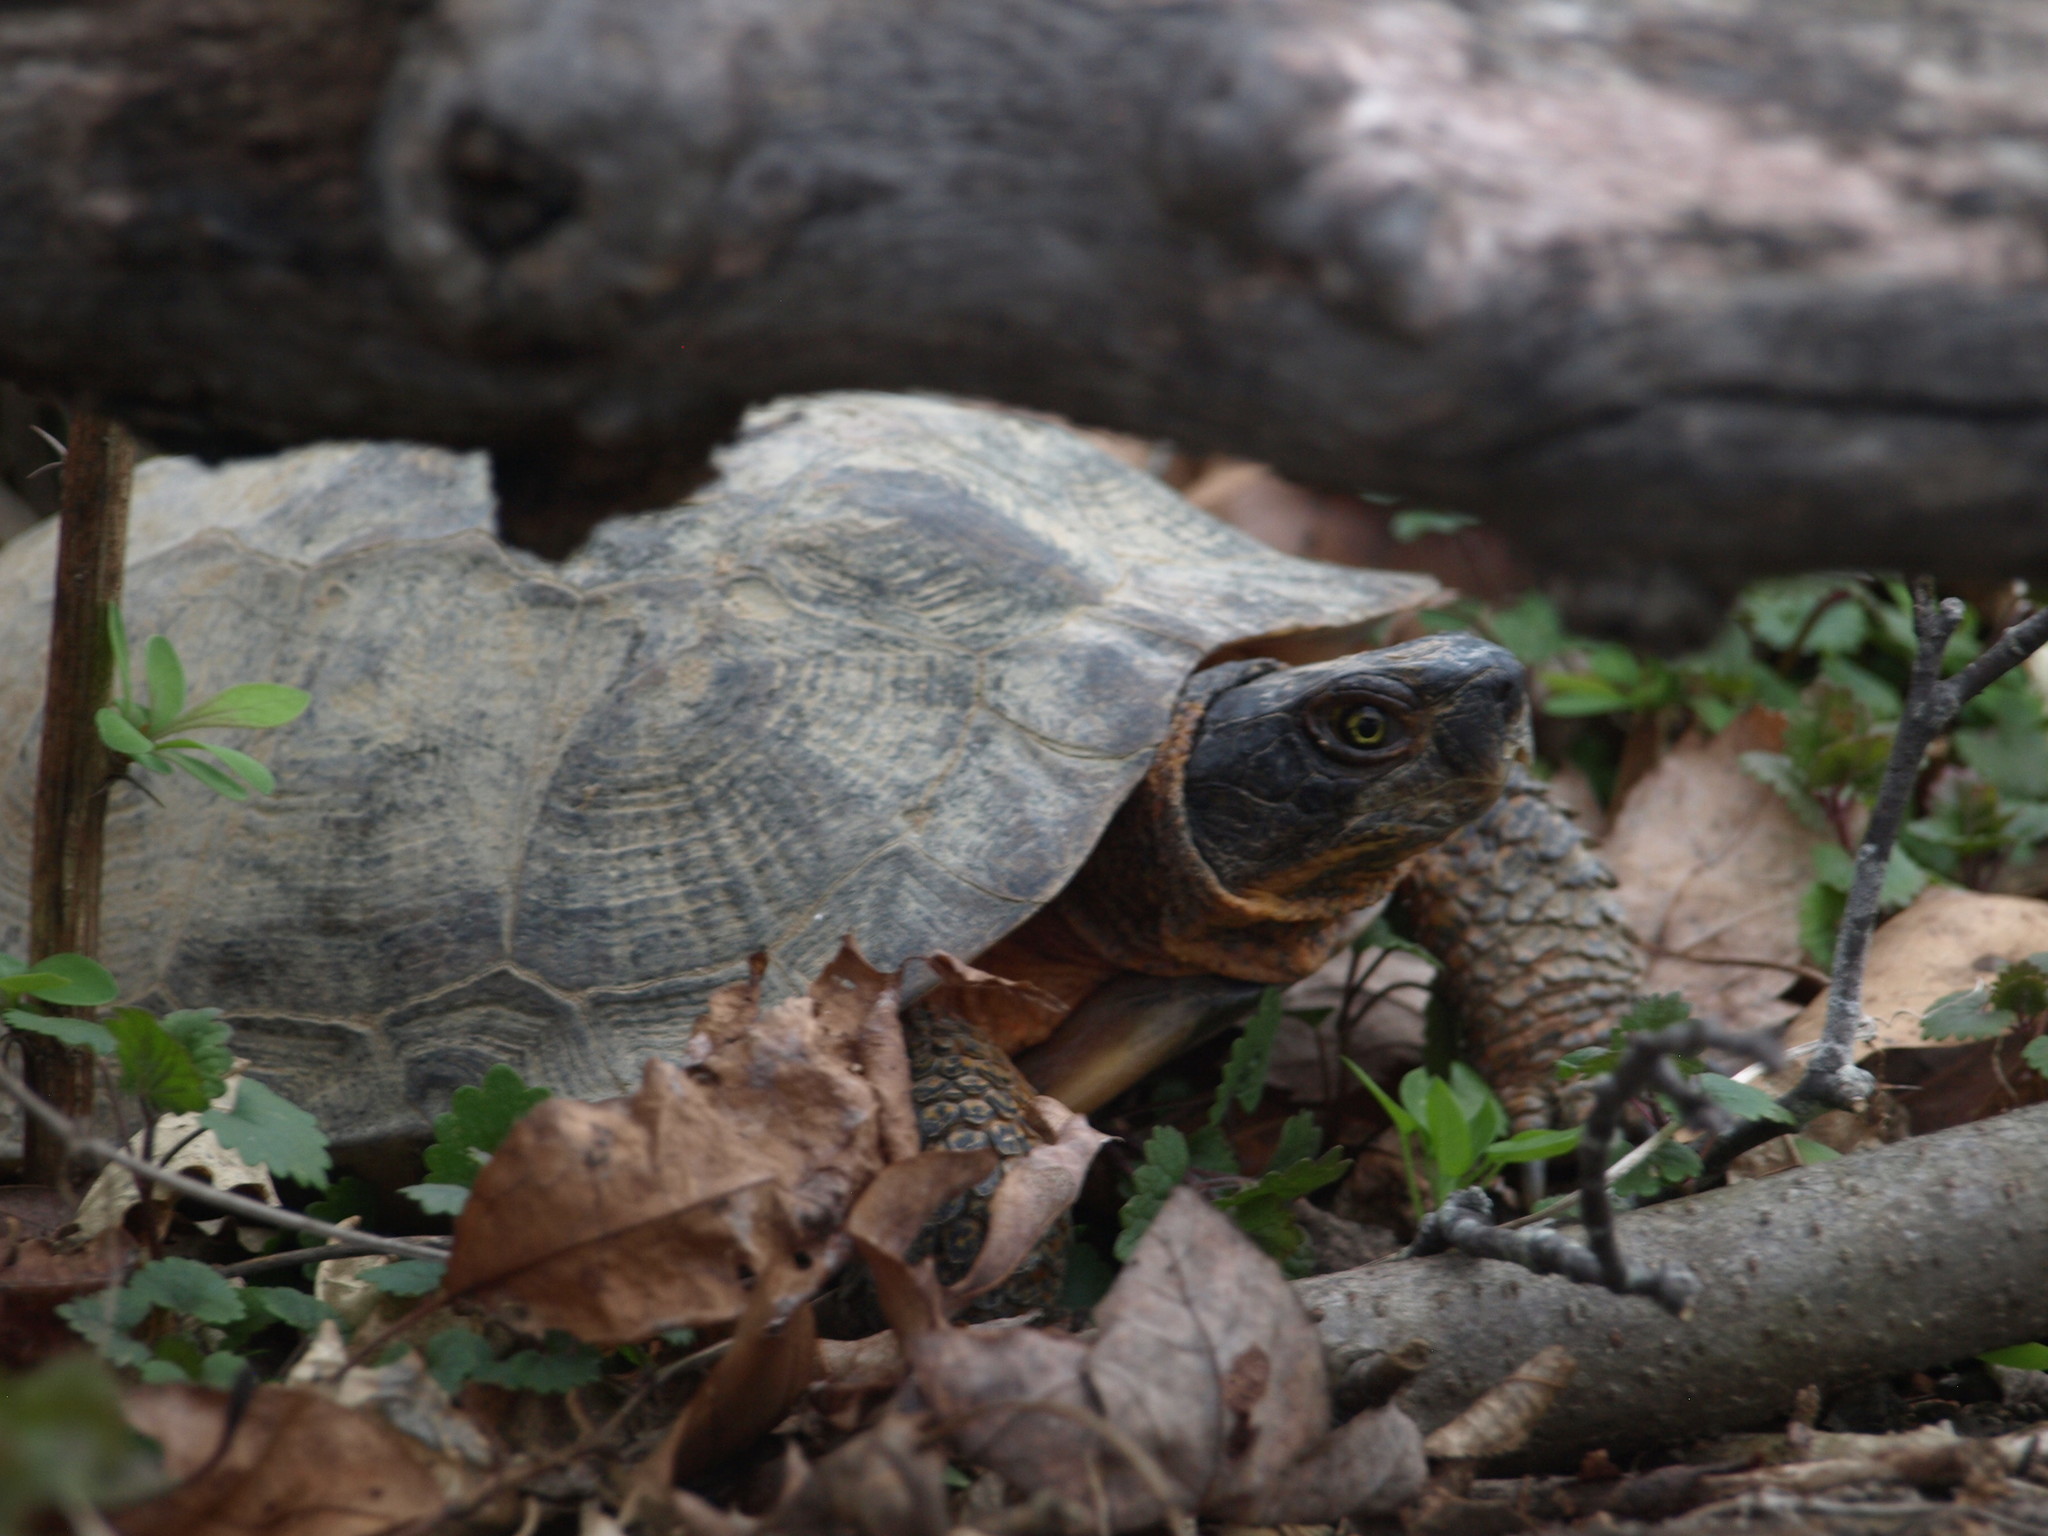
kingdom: Animalia
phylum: Chordata
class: Testudines
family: Emydidae
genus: Glyptemys
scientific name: Glyptemys insculpta
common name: Wood turtle
